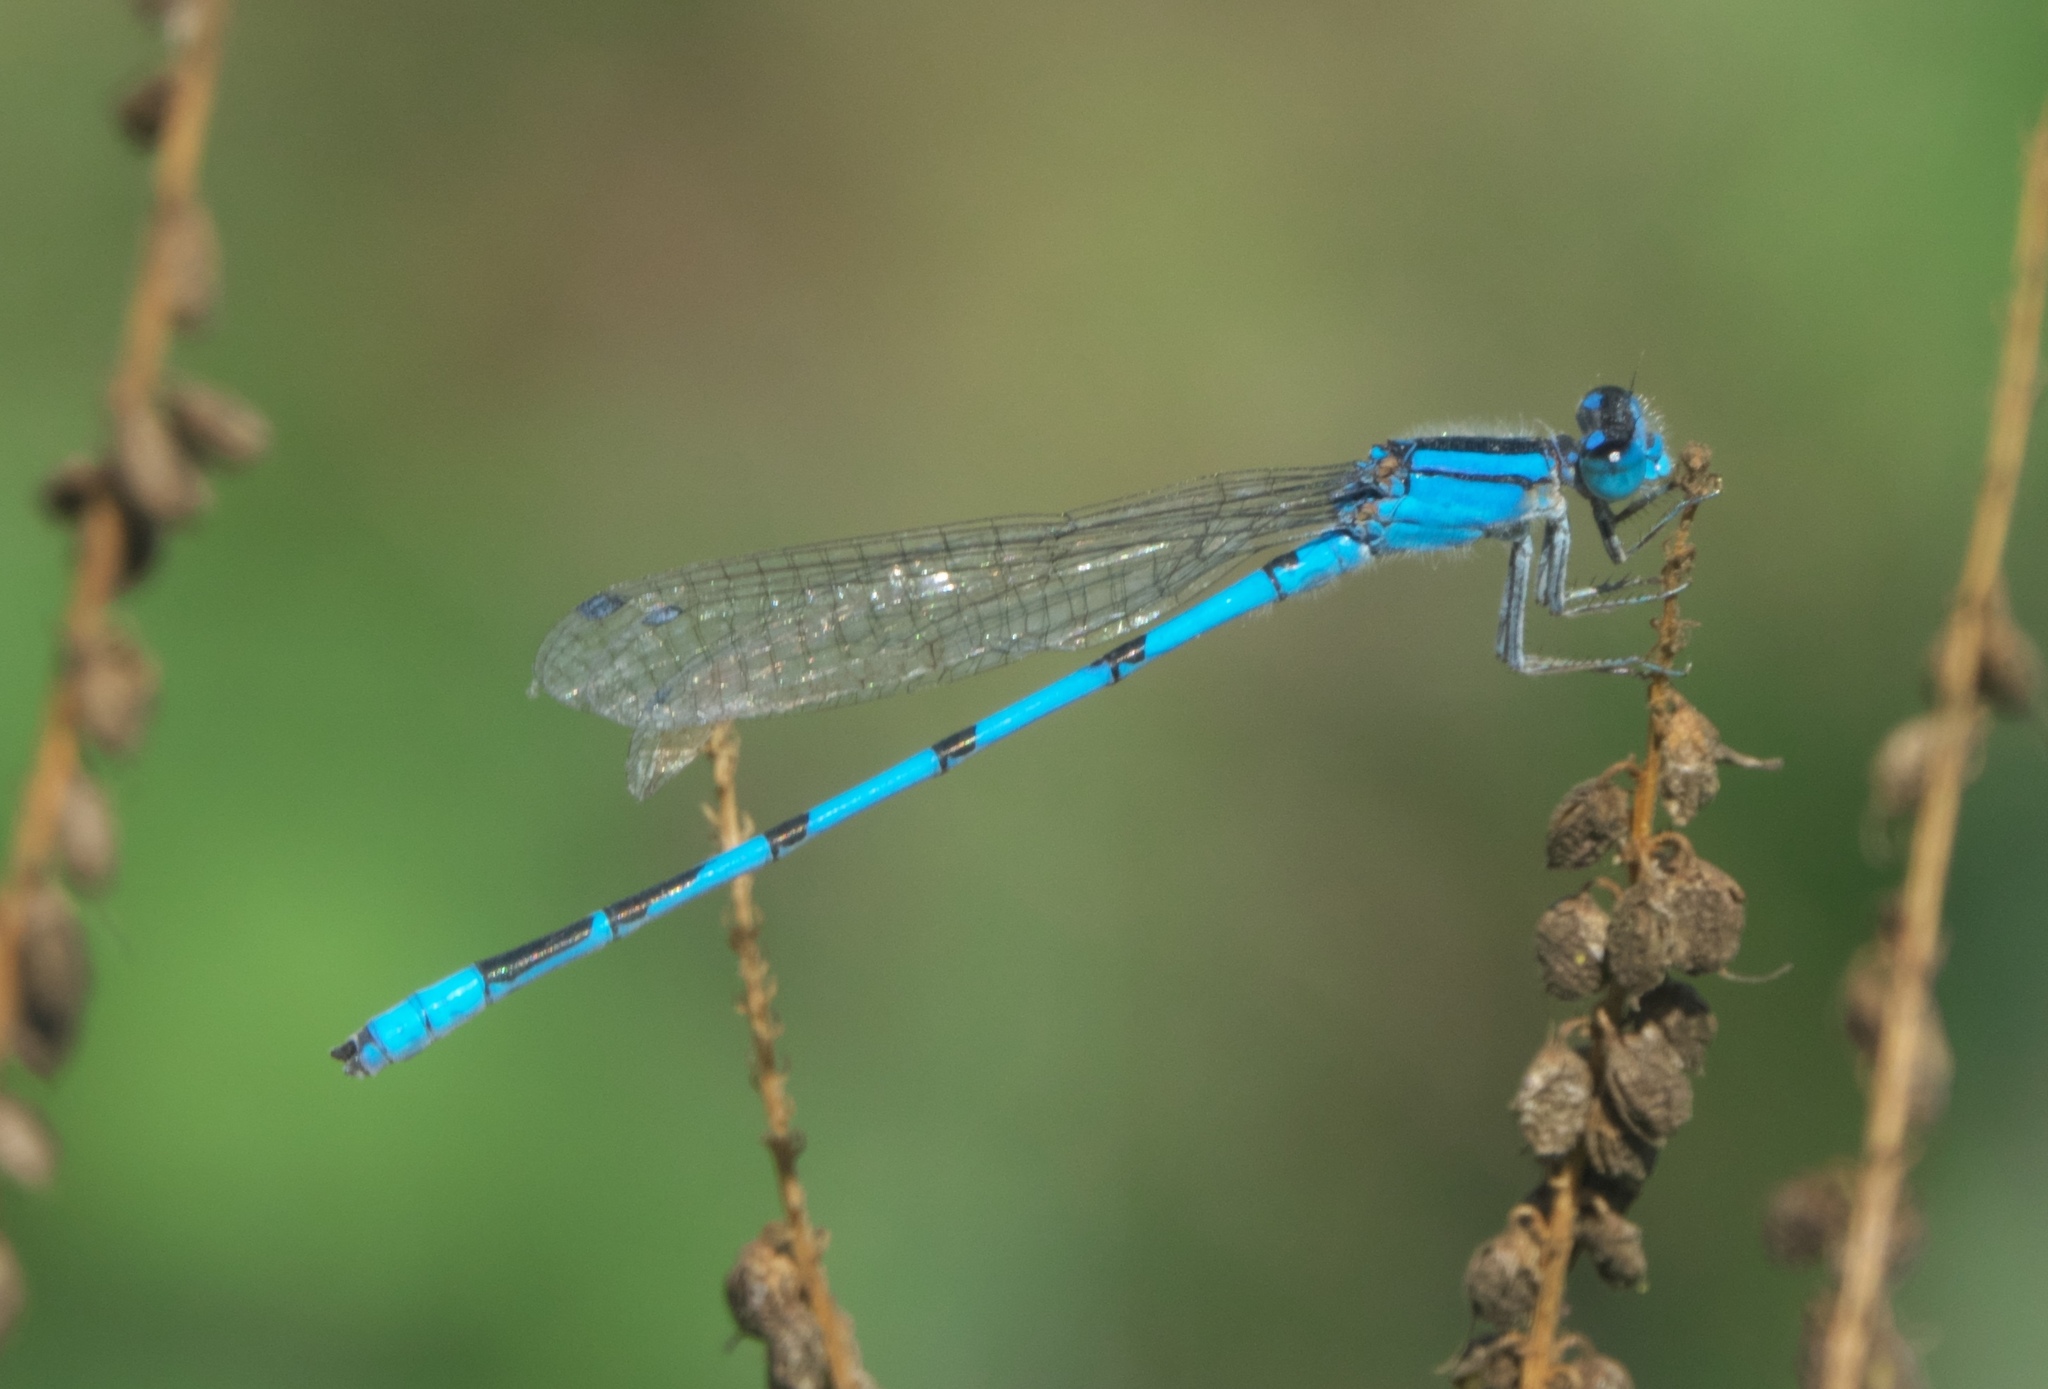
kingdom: Animalia
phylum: Arthropoda
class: Insecta
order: Odonata
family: Coenagrionidae
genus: Enallagma
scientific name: Enallagma civile
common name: Damselfly
